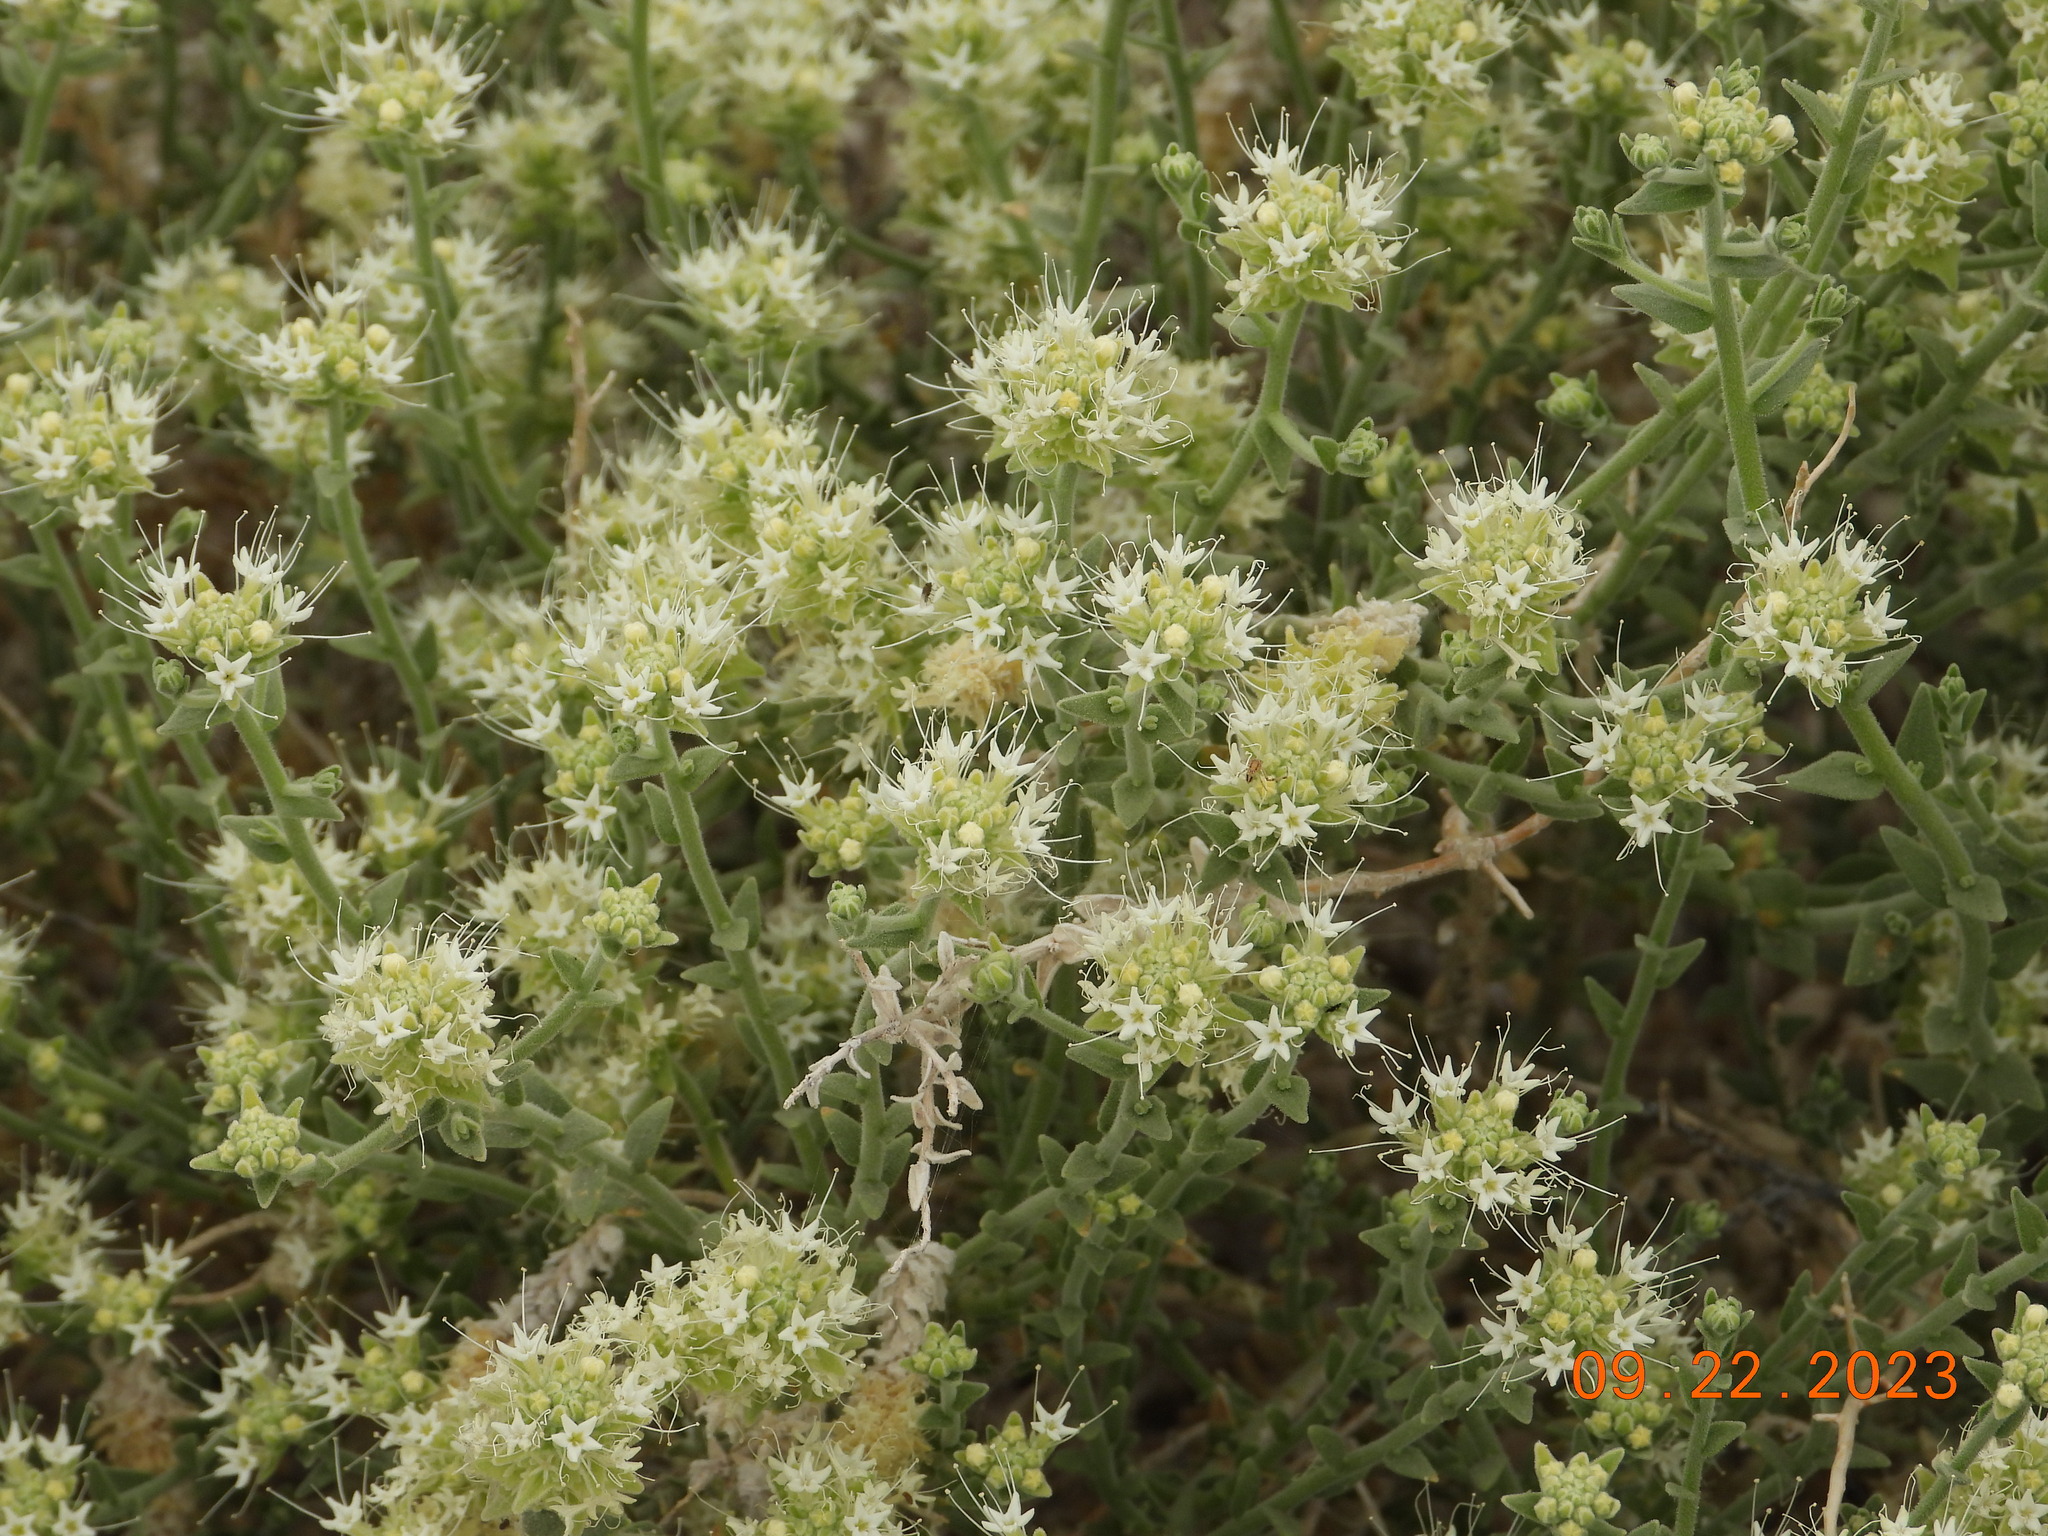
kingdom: Plantae
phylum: Tracheophyta
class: Magnoliopsida
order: Cornales
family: Loasaceae
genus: Petalonyx
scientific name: Petalonyx thurberi
